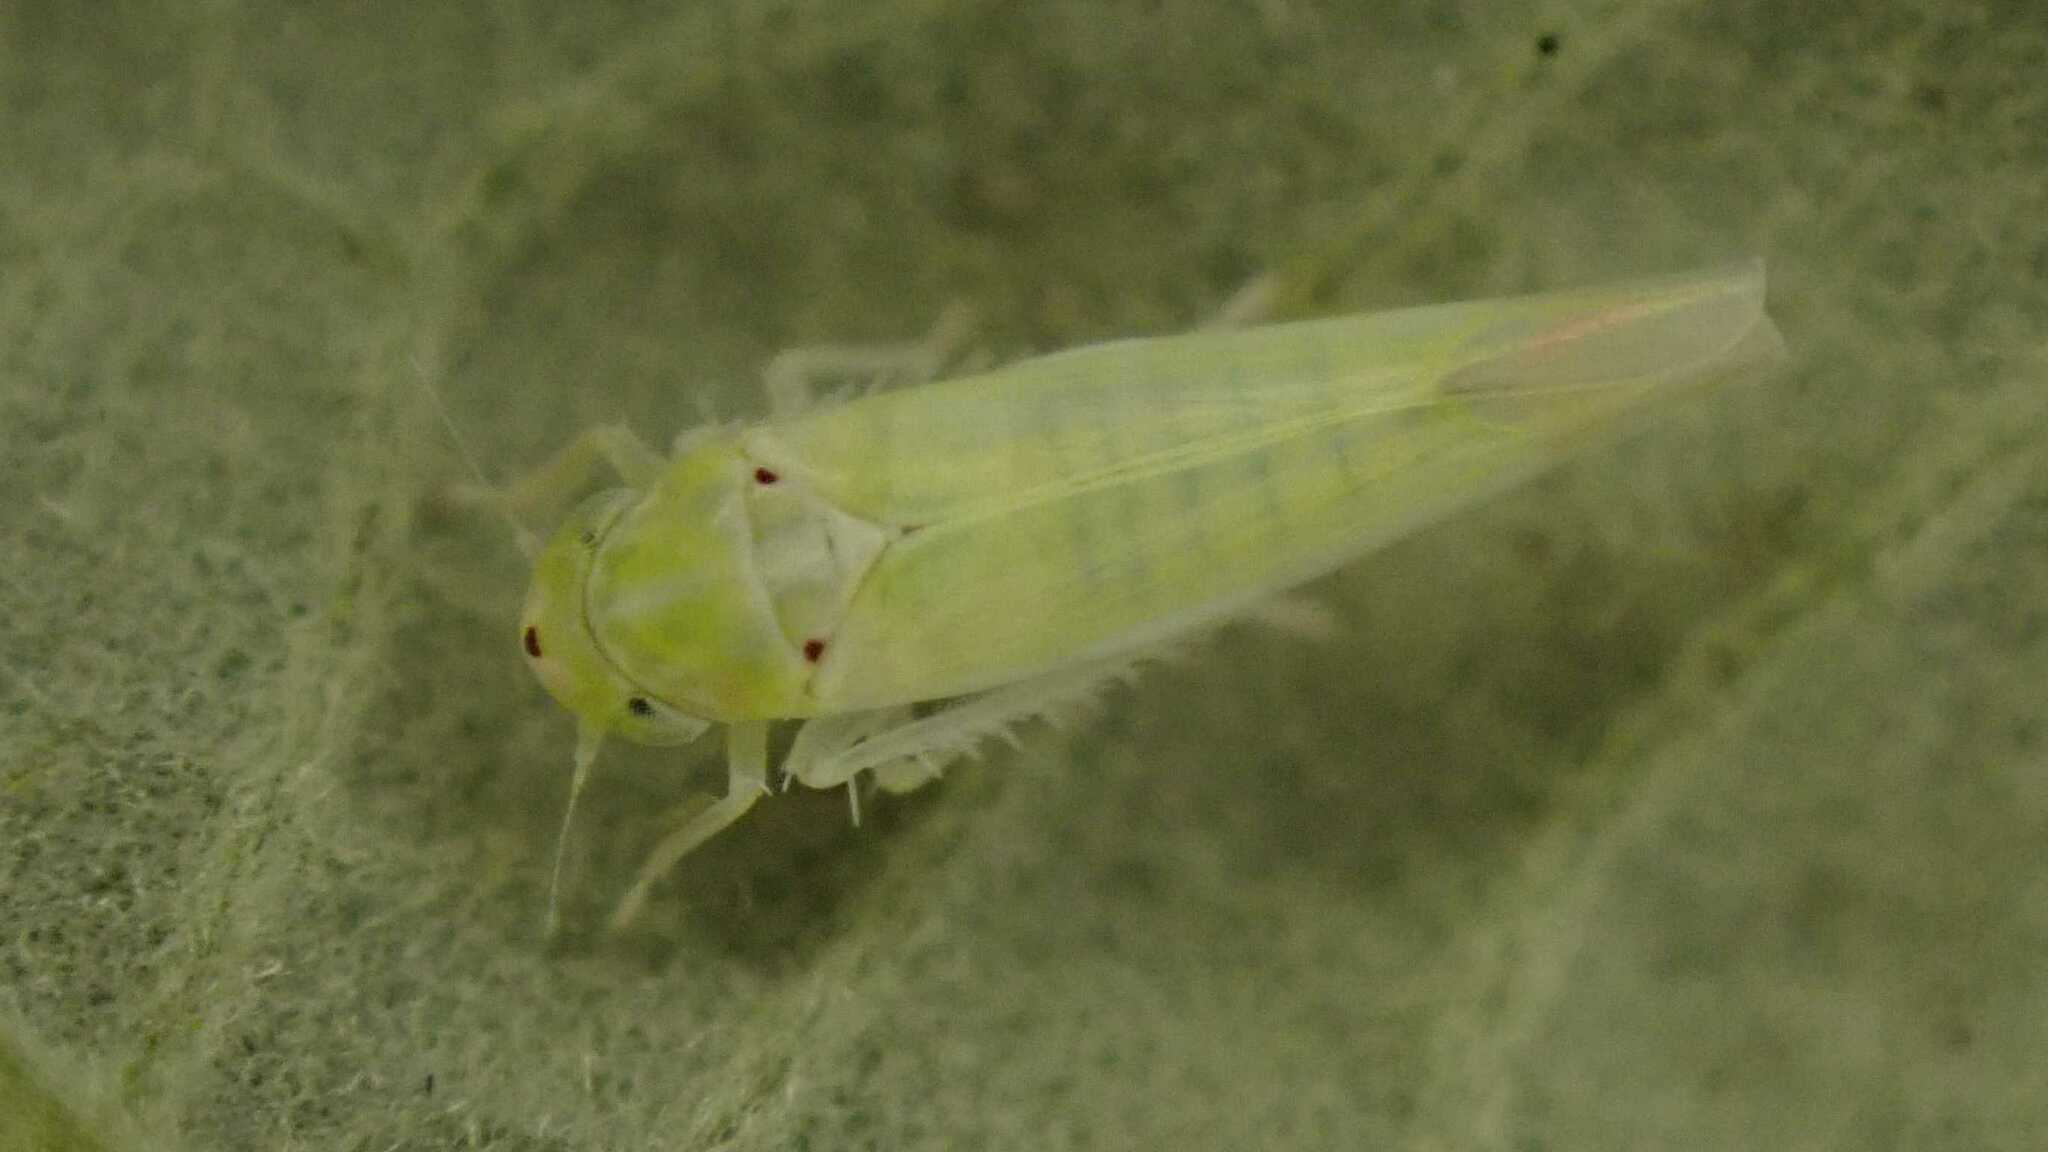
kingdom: Animalia
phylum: Arthropoda
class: Insecta
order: Hemiptera
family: Cicadellidae
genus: Zygina
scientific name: Zygina nivea
